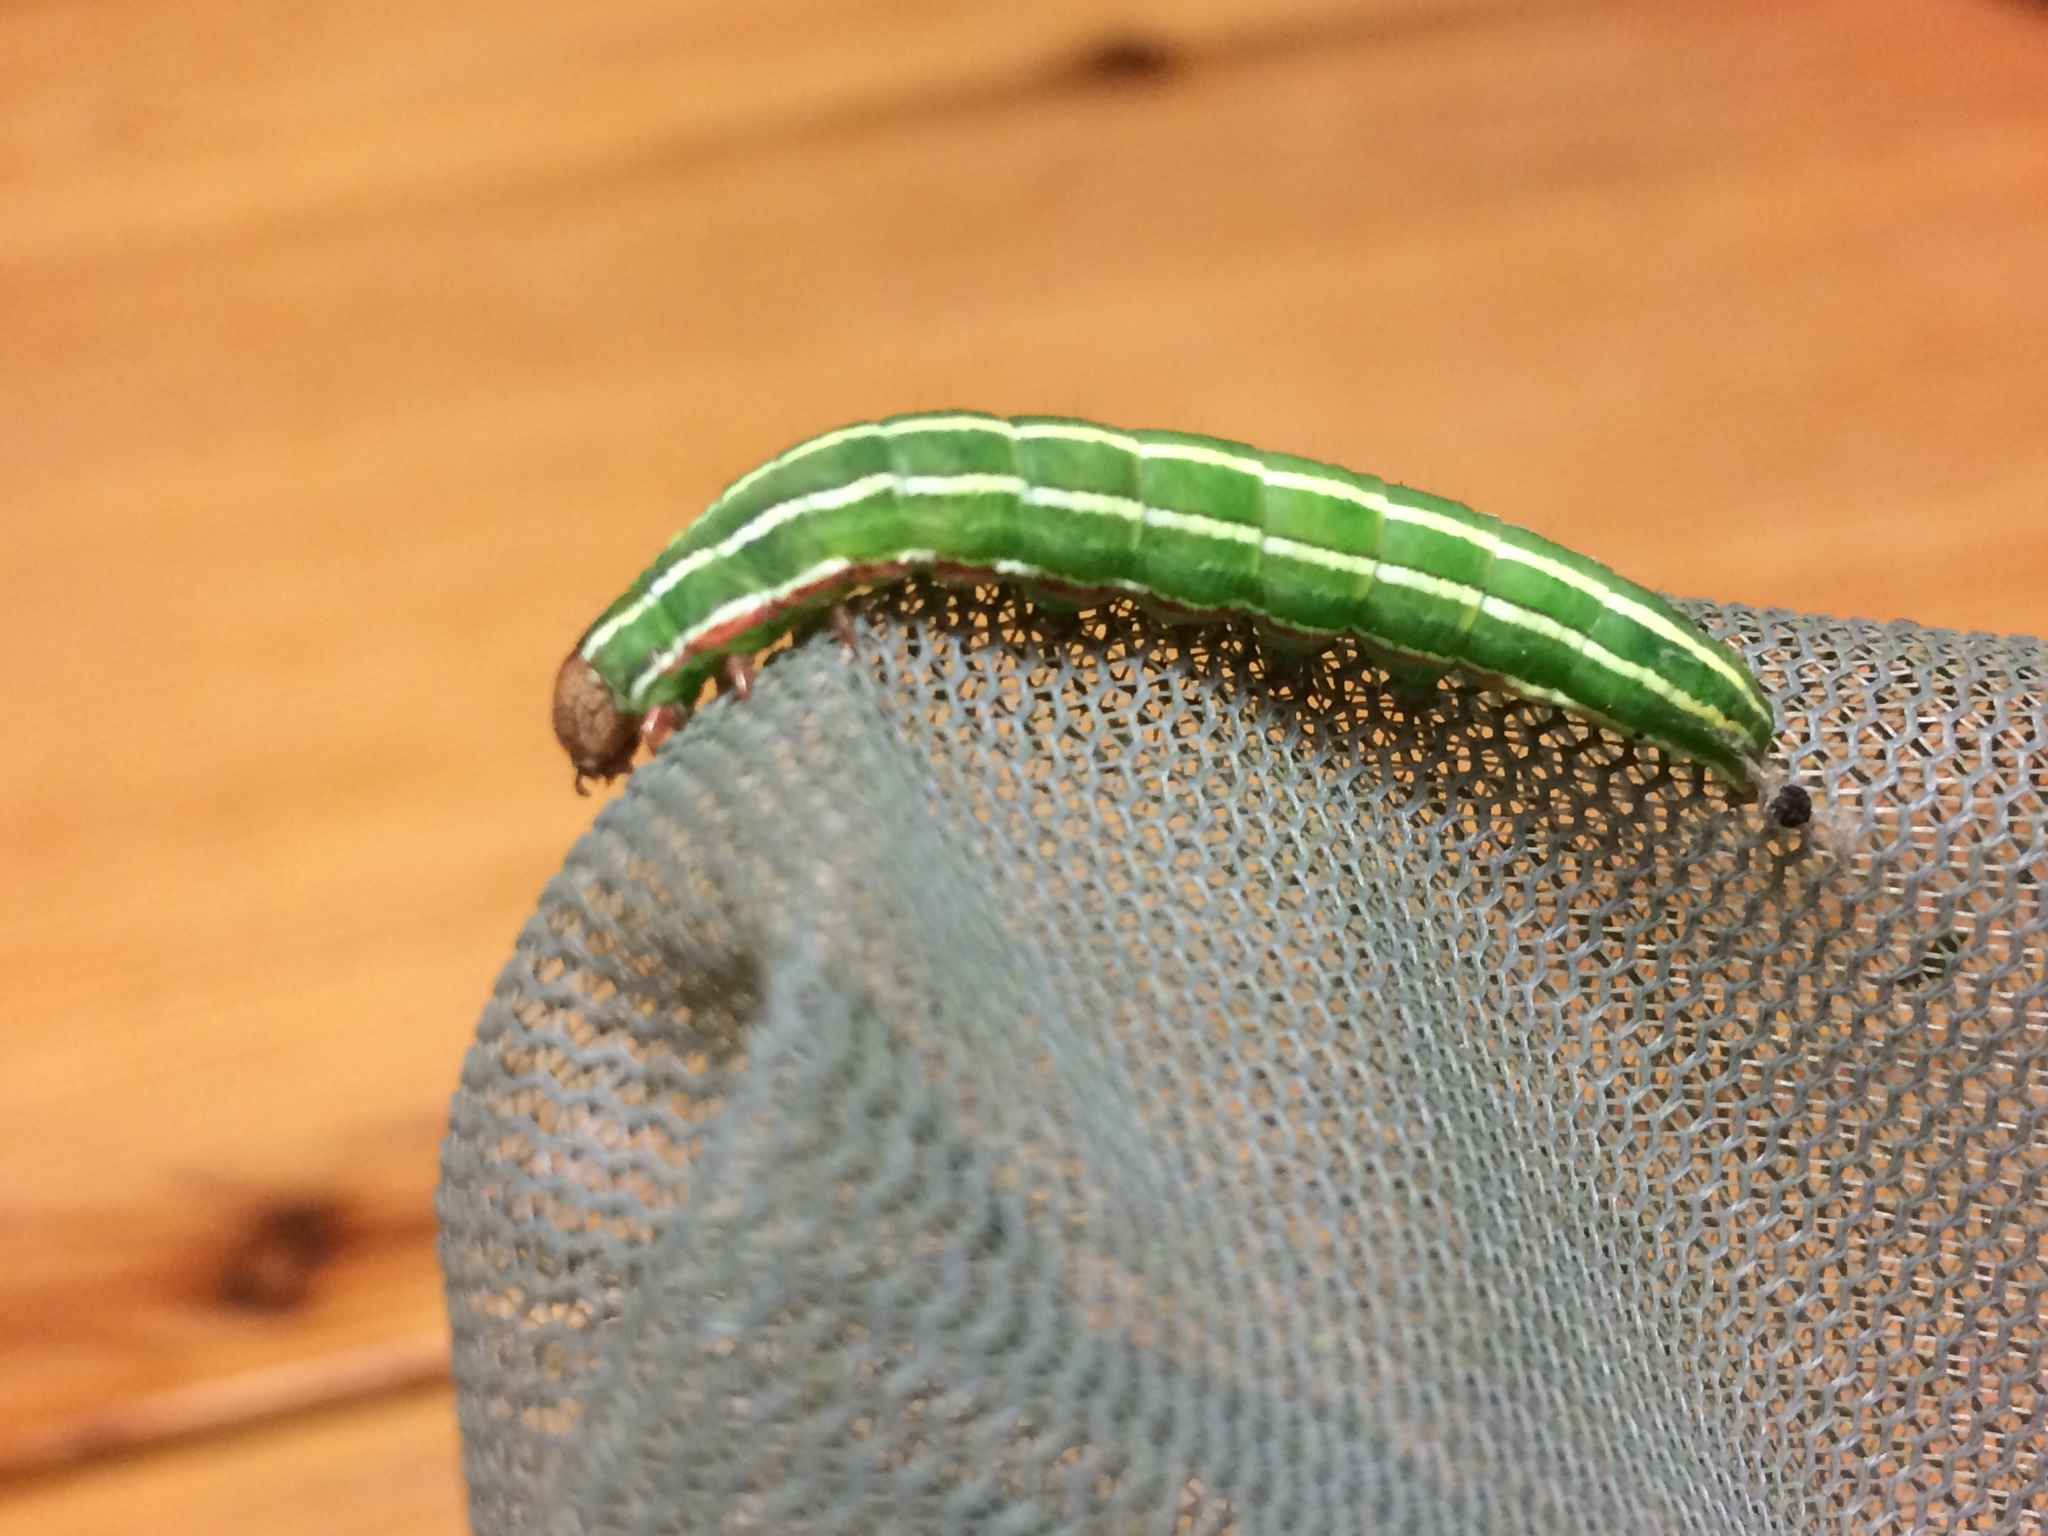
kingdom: Animalia
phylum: Arthropoda
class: Insecta
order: Lepidoptera
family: Noctuidae
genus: Panolis
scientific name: Panolis flammea
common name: Pine beauty
